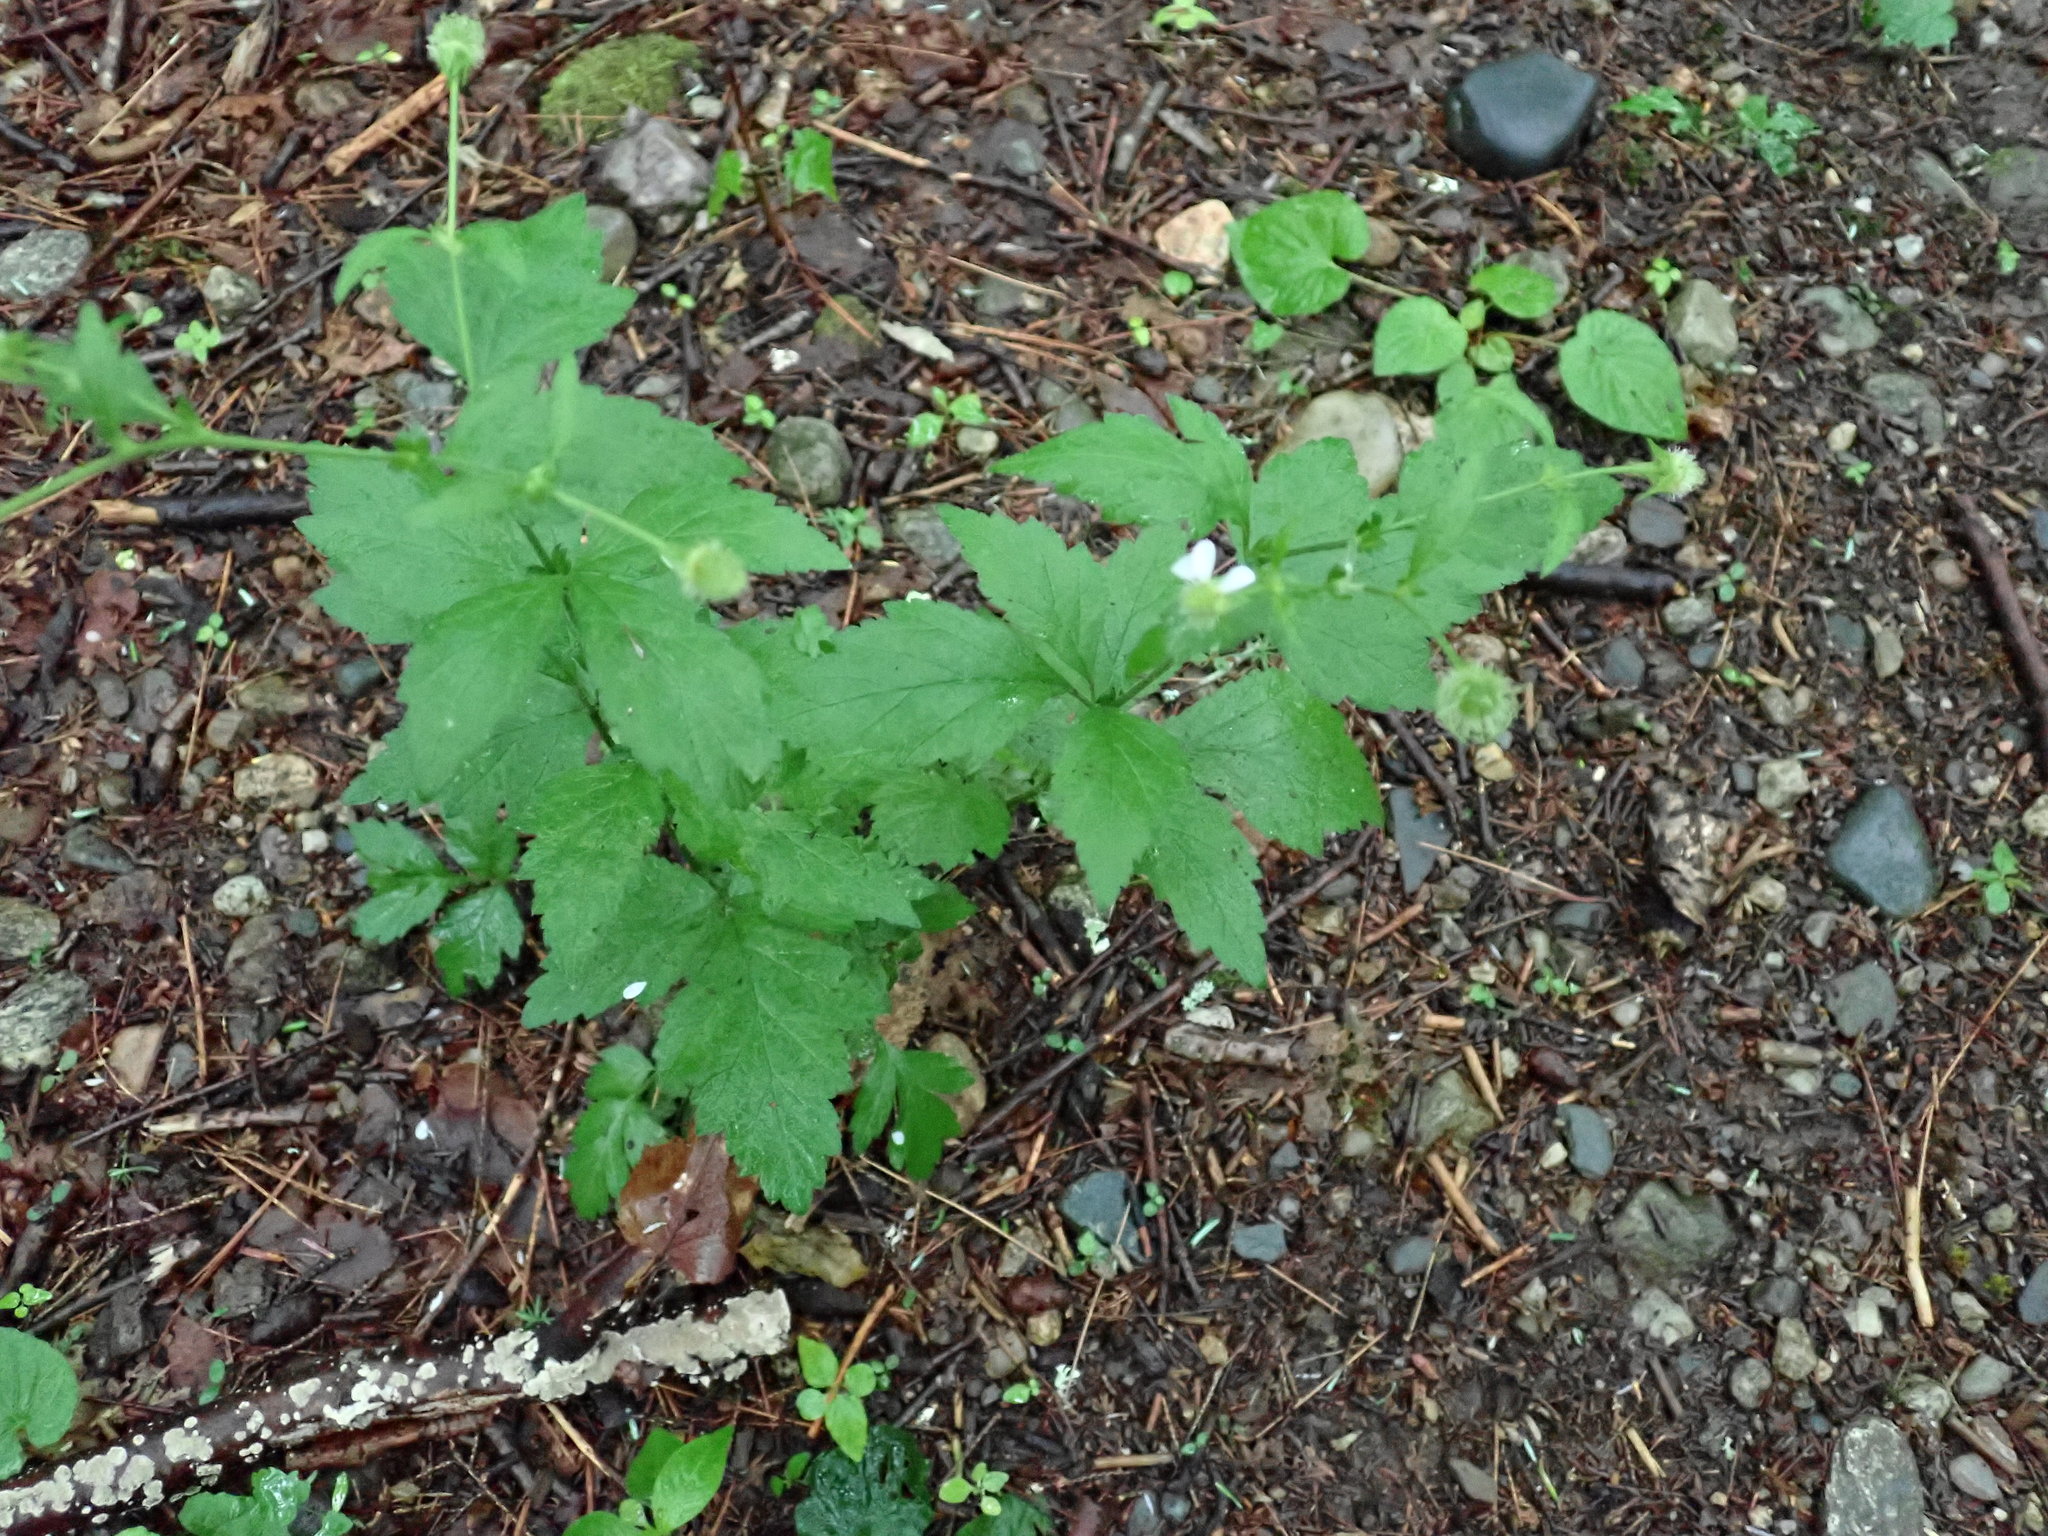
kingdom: Plantae
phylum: Tracheophyta
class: Magnoliopsida
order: Rosales
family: Rosaceae
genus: Geum
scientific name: Geum canadense
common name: White avens
